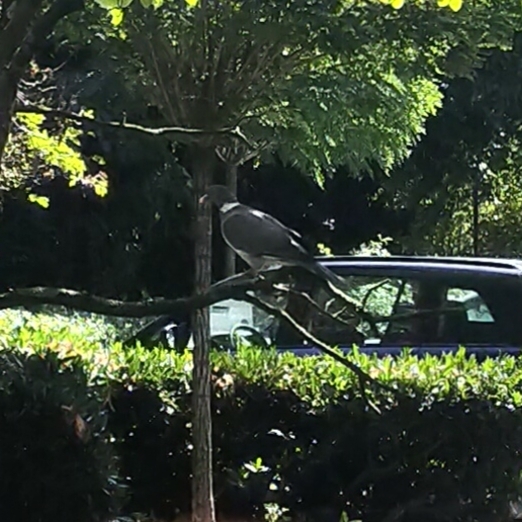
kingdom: Animalia
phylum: Chordata
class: Aves
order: Columbiformes
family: Columbidae
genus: Columba
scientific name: Columba palumbus
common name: Common wood pigeon
